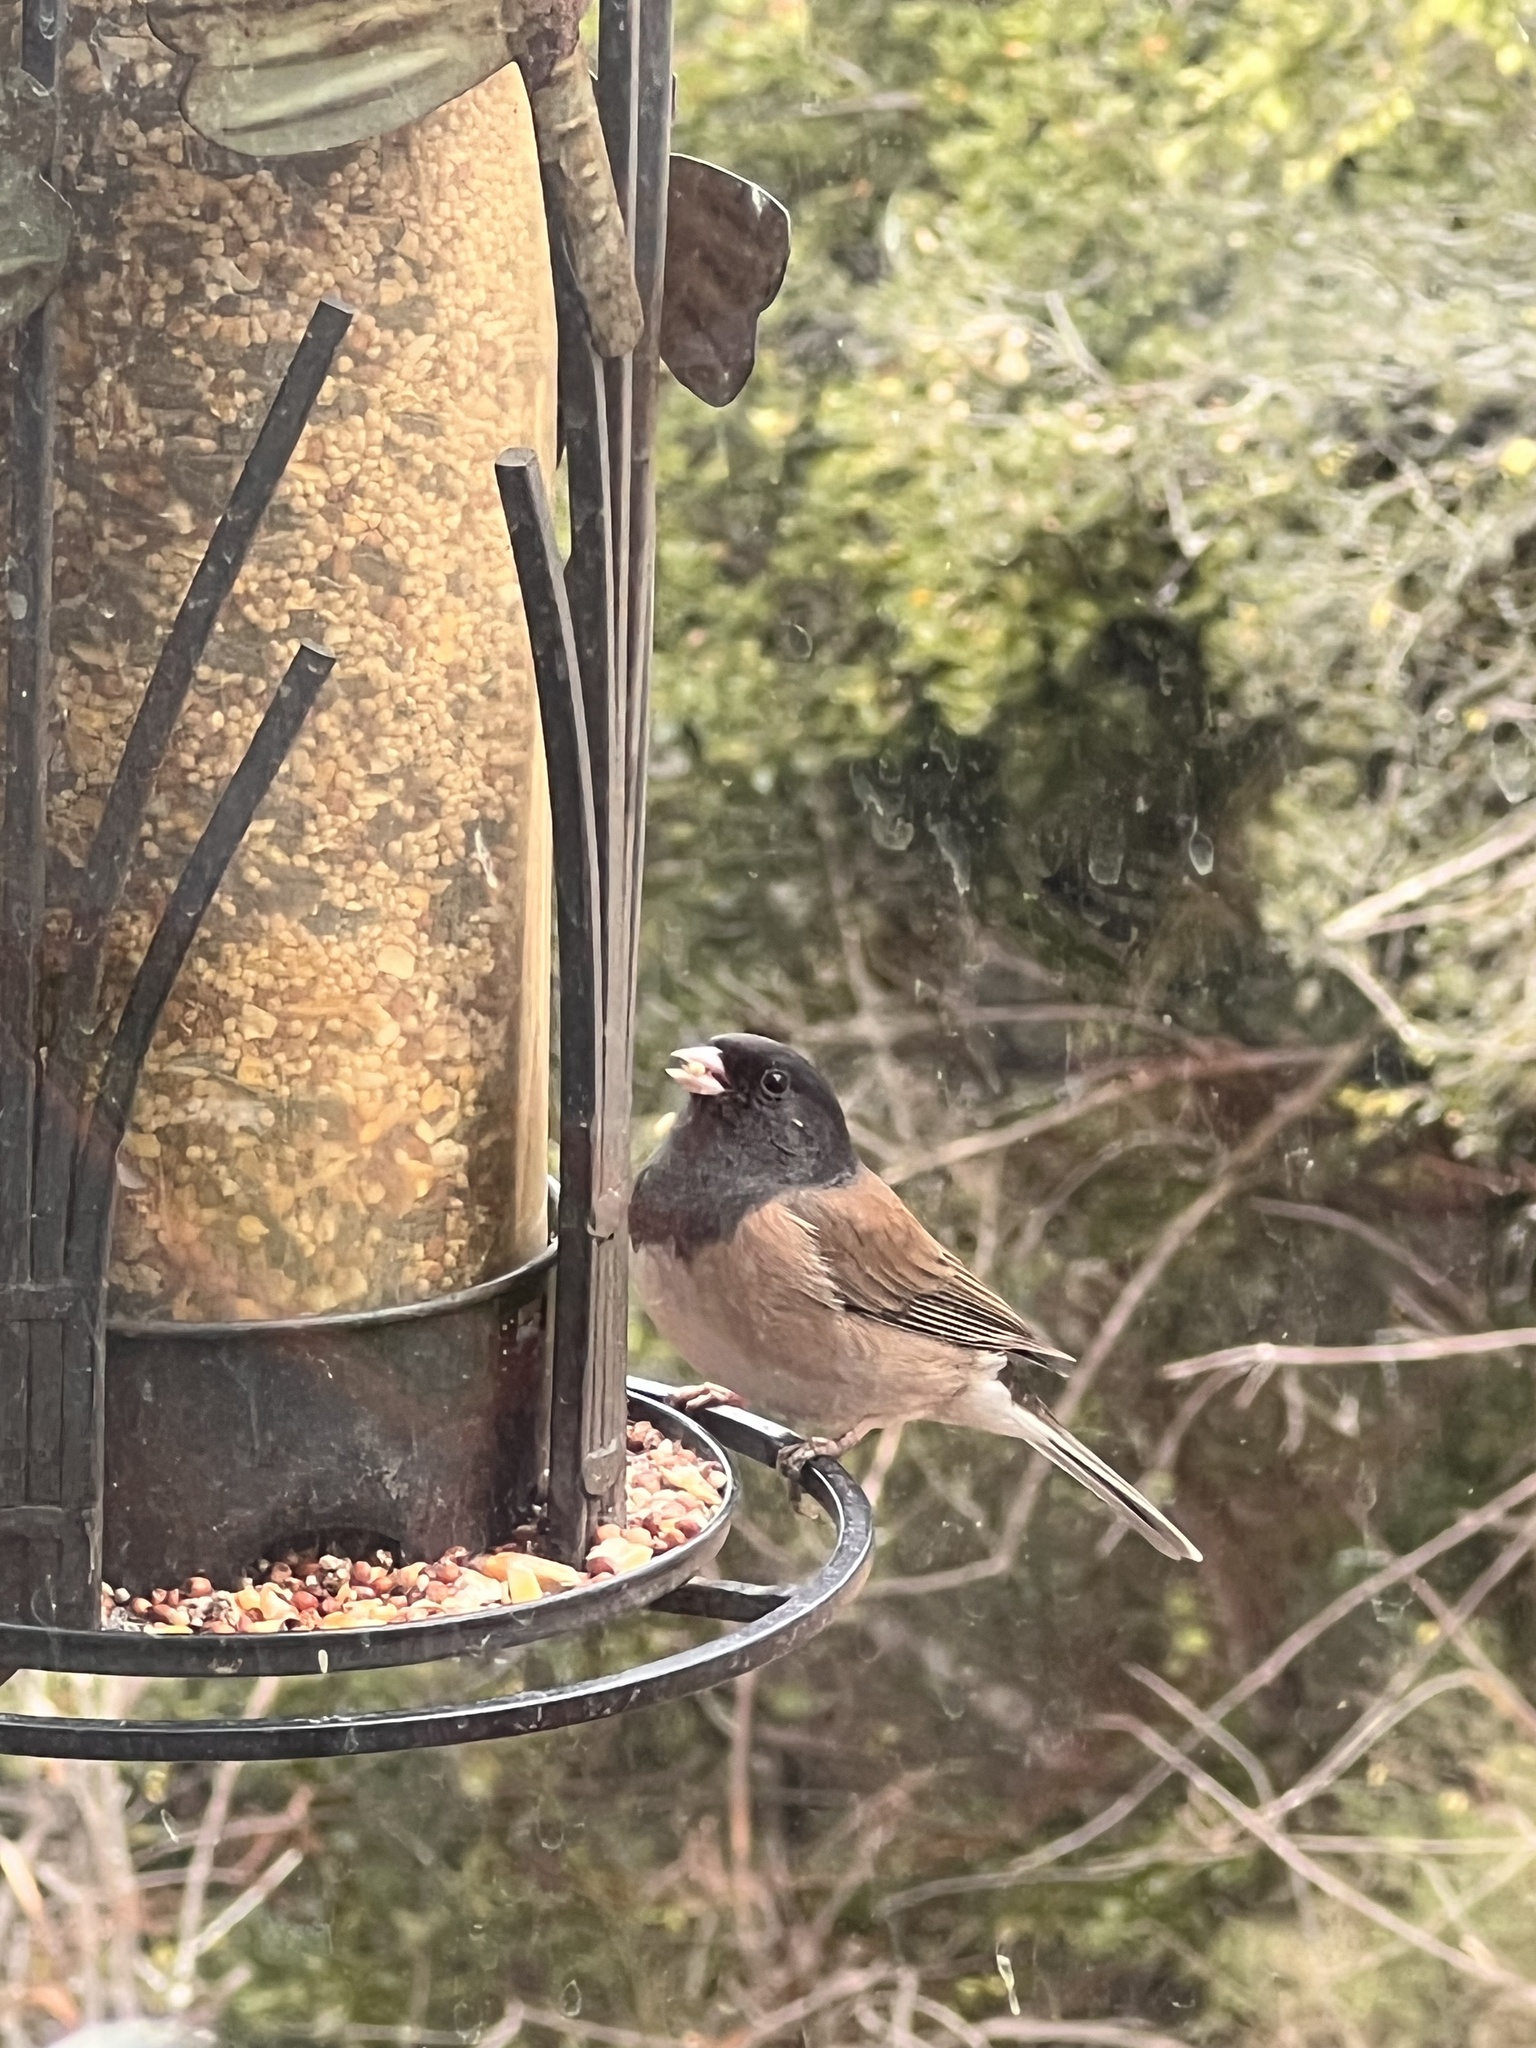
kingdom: Animalia
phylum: Chordata
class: Aves
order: Passeriformes
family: Passerellidae
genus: Junco
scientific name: Junco hyemalis
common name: Dark-eyed junco
